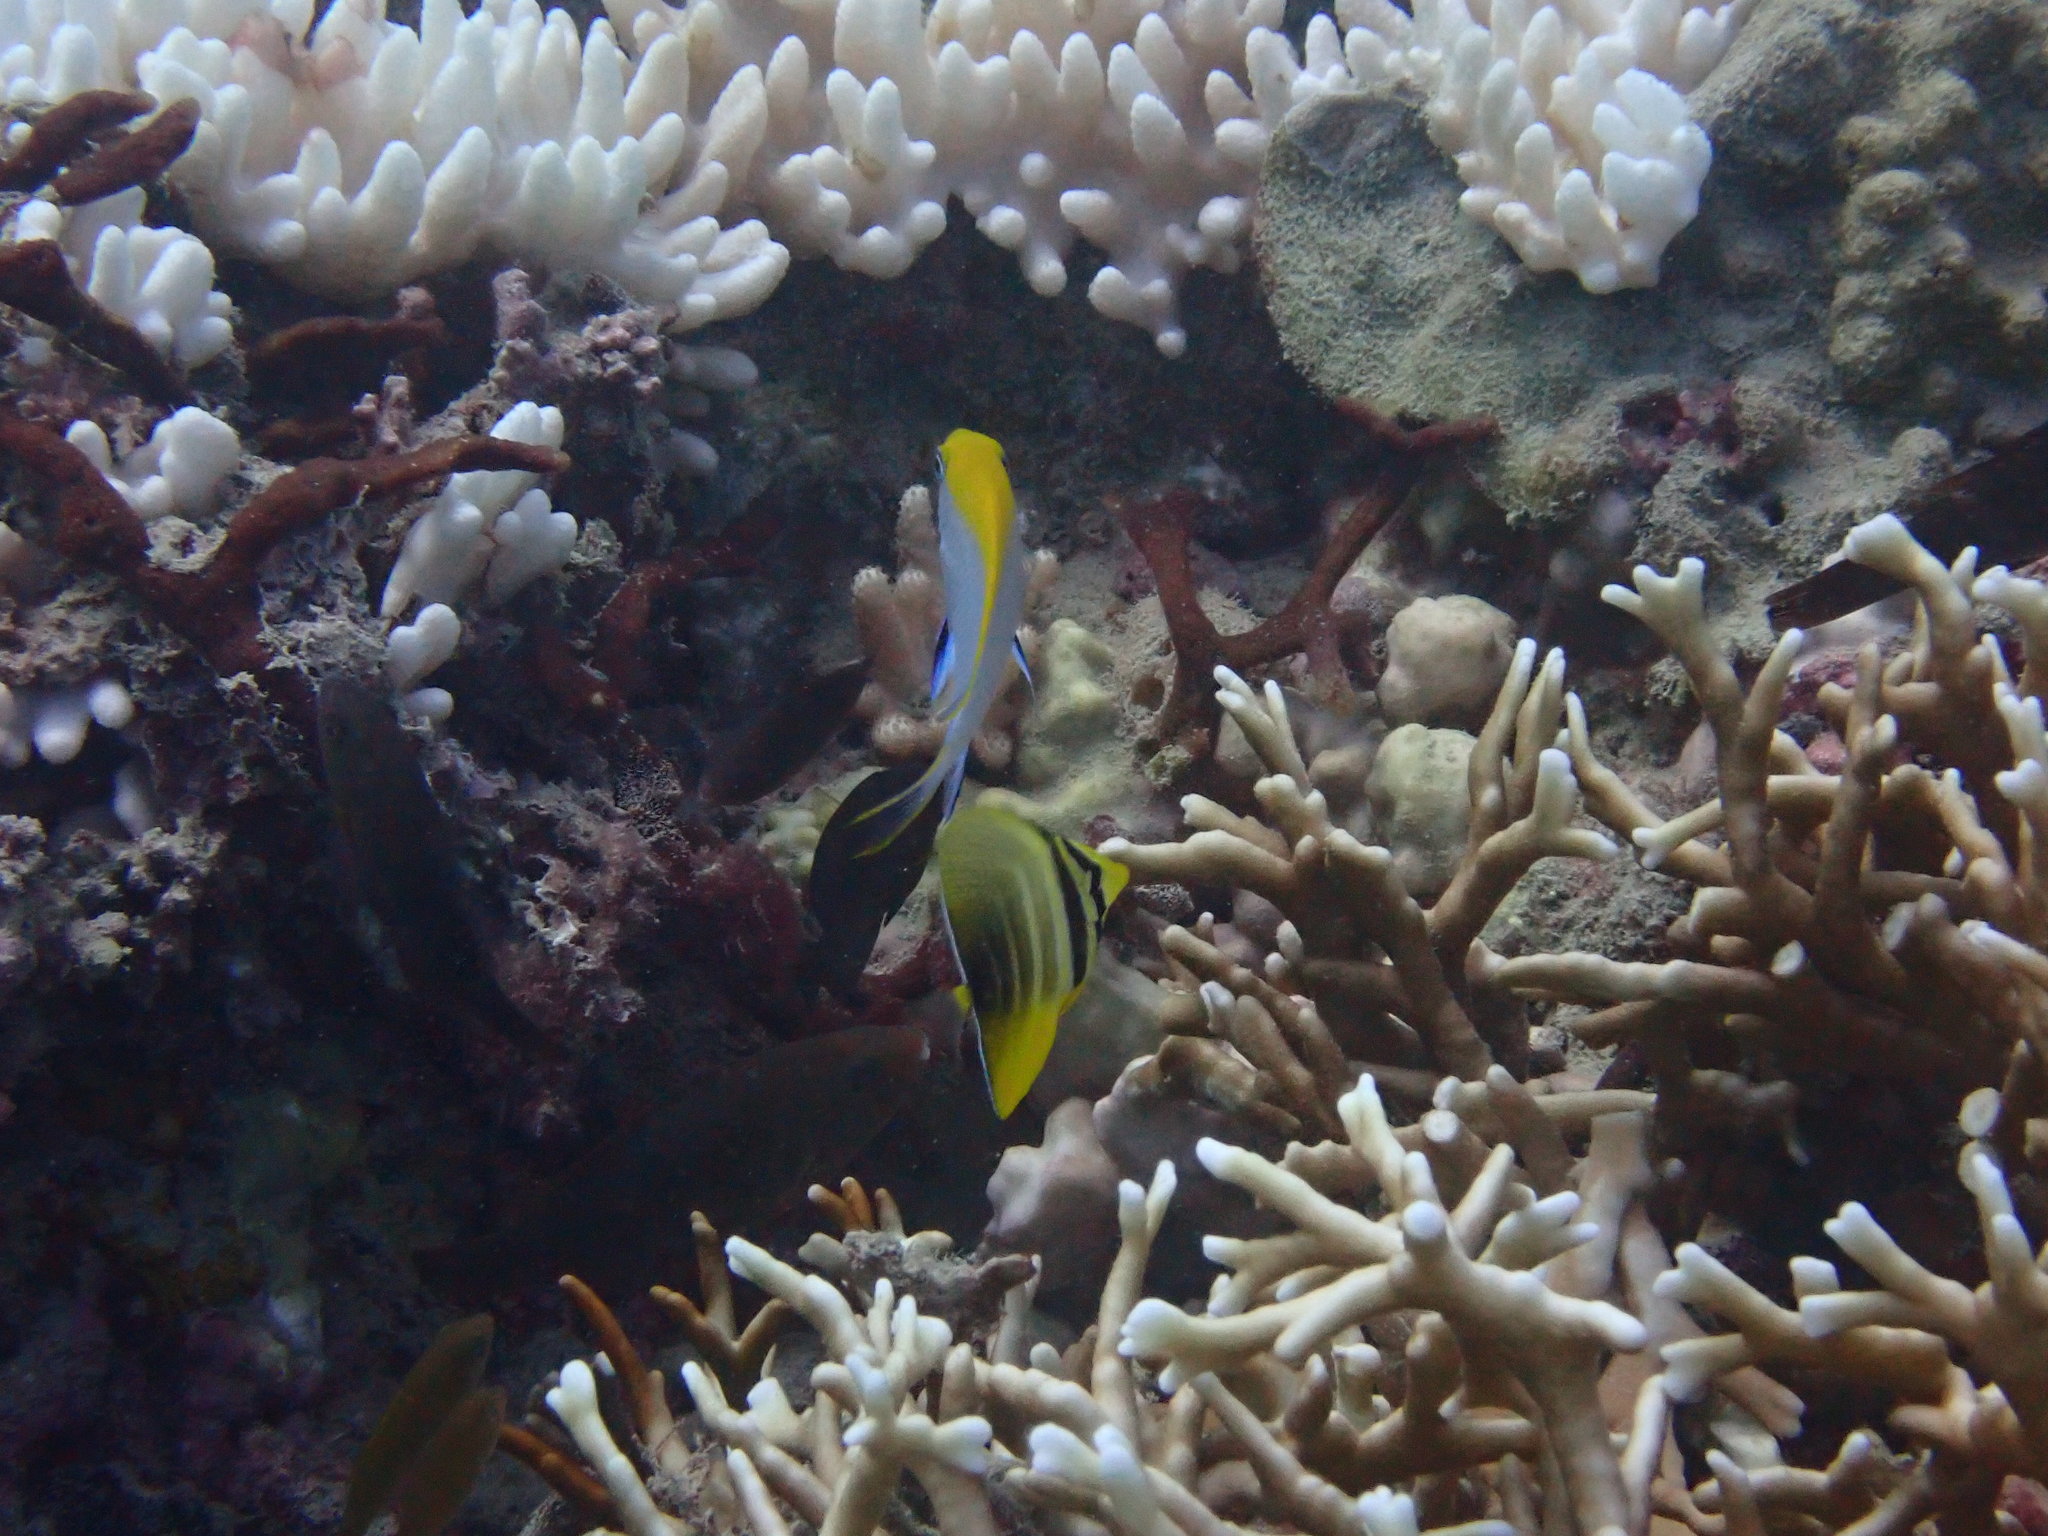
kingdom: Animalia
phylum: Chordata
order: Perciformes
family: Acanthuridae
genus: Zebrasoma
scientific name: Zebrasoma veliferum
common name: Sailfin surgeonfish
